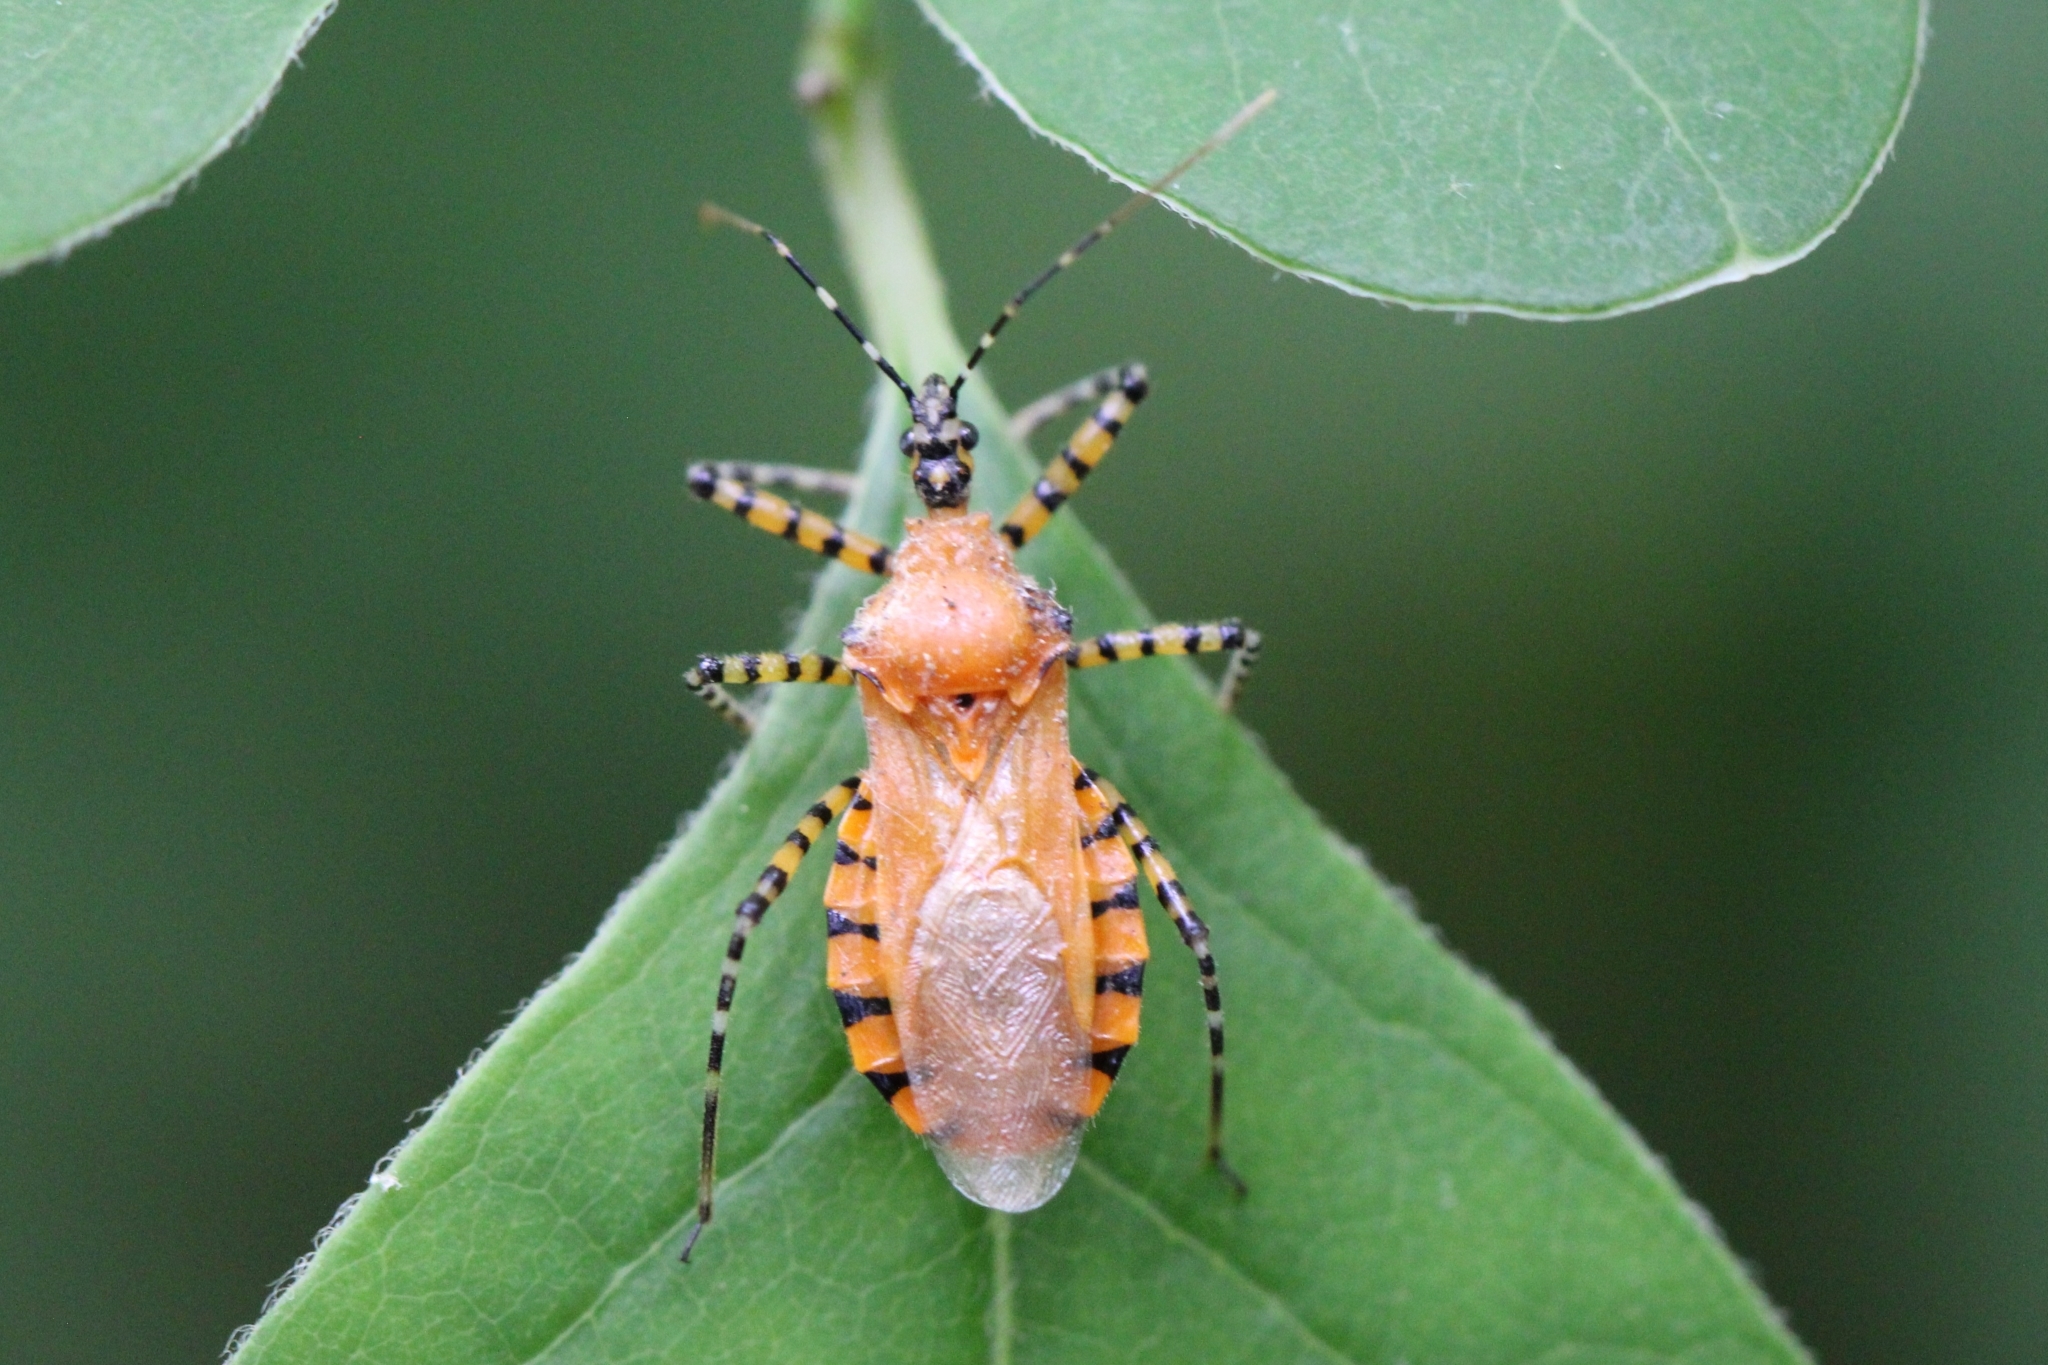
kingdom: Animalia
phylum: Arthropoda
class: Insecta
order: Hemiptera
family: Reduviidae
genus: Pselliopus
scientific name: Pselliopus barberi
